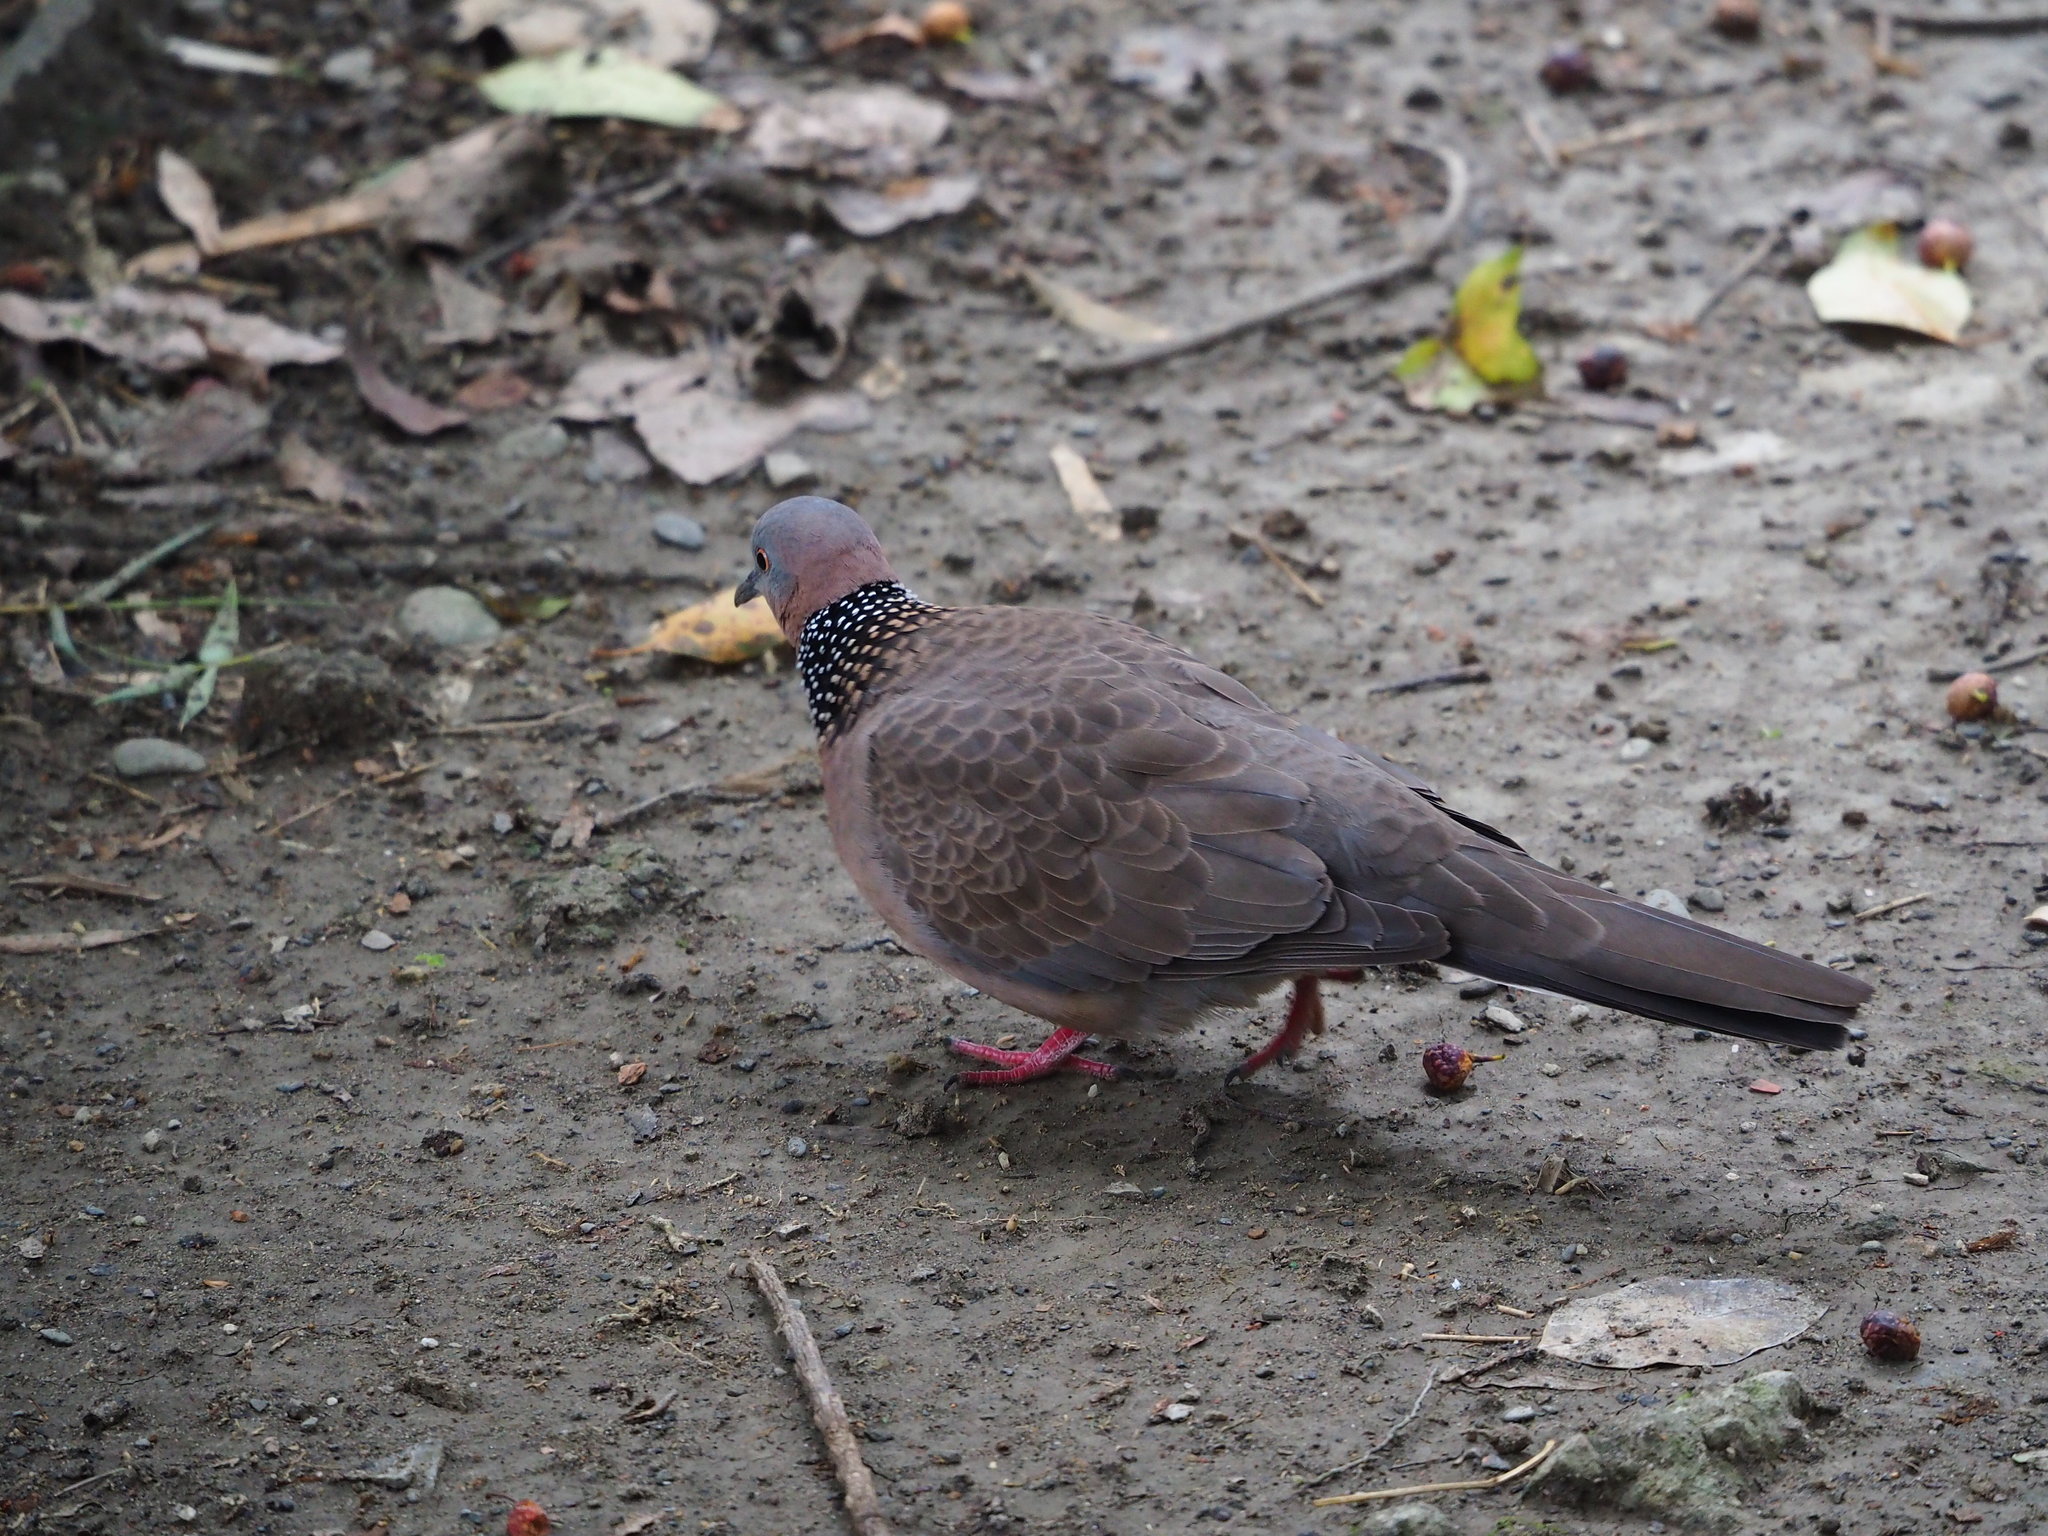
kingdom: Animalia
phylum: Chordata
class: Aves
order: Columbiformes
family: Columbidae
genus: Spilopelia
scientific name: Spilopelia chinensis
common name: Spotted dove
